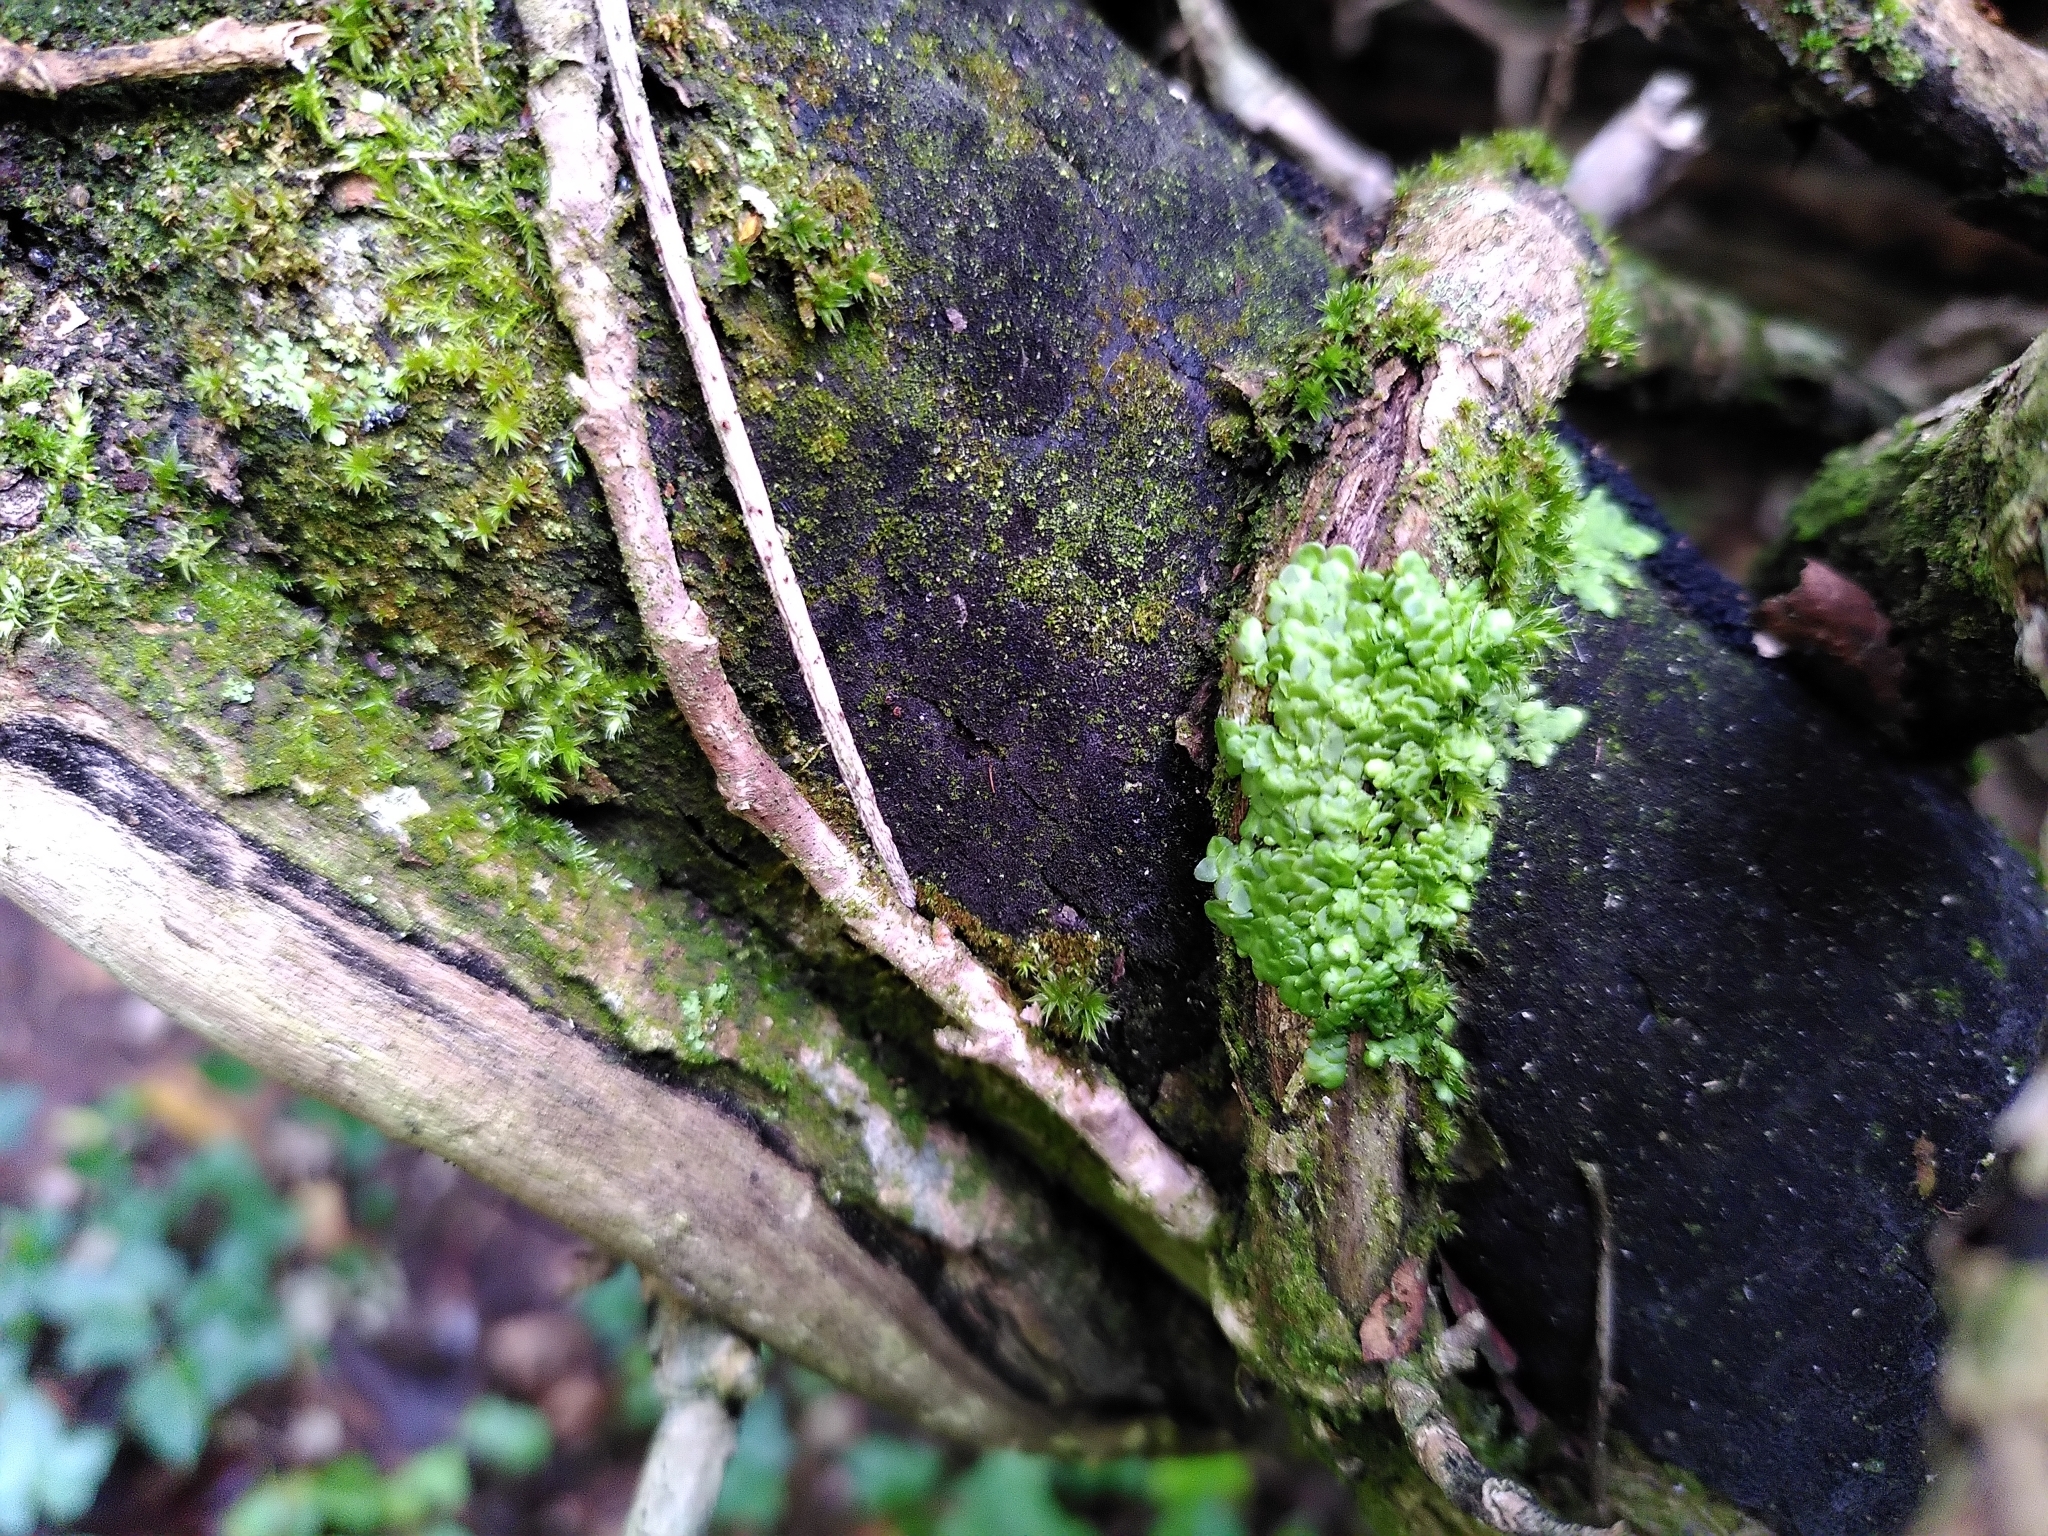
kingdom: Plantae
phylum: Marchantiophyta
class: Jungermanniopsida
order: Porellales
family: Radulaceae
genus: Radula
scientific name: Radula complanata
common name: Flat-leaved scalewort
